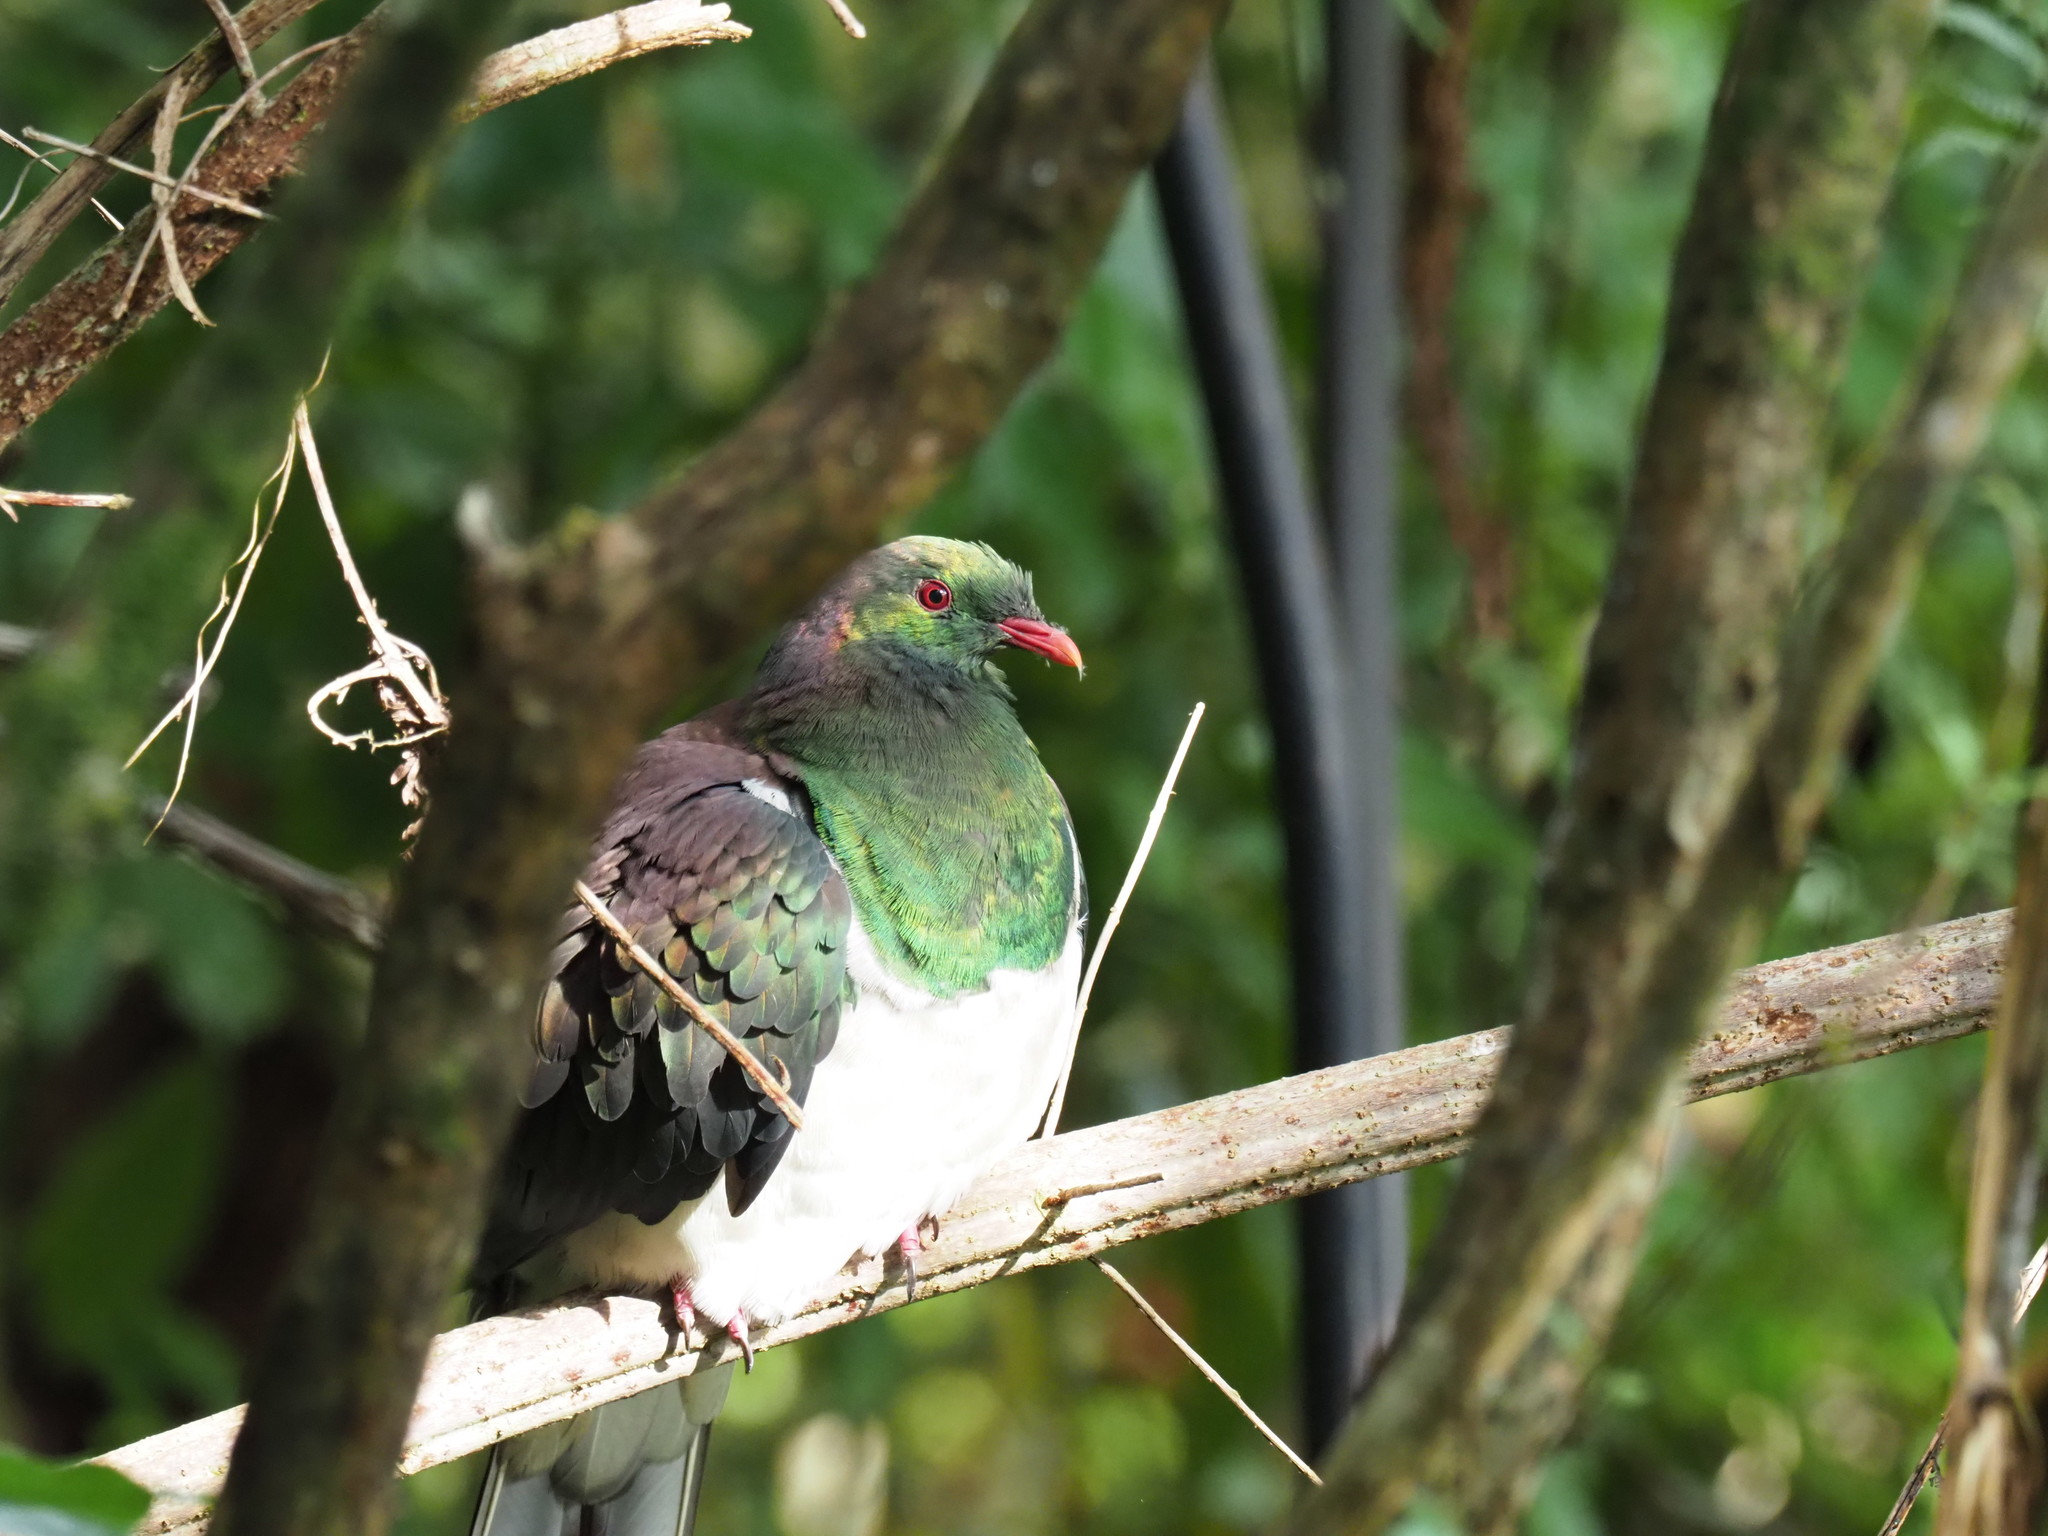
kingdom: Animalia
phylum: Chordata
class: Aves
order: Columbiformes
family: Columbidae
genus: Hemiphaga
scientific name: Hemiphaga novaeseelandiae
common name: New zealand pigeon
